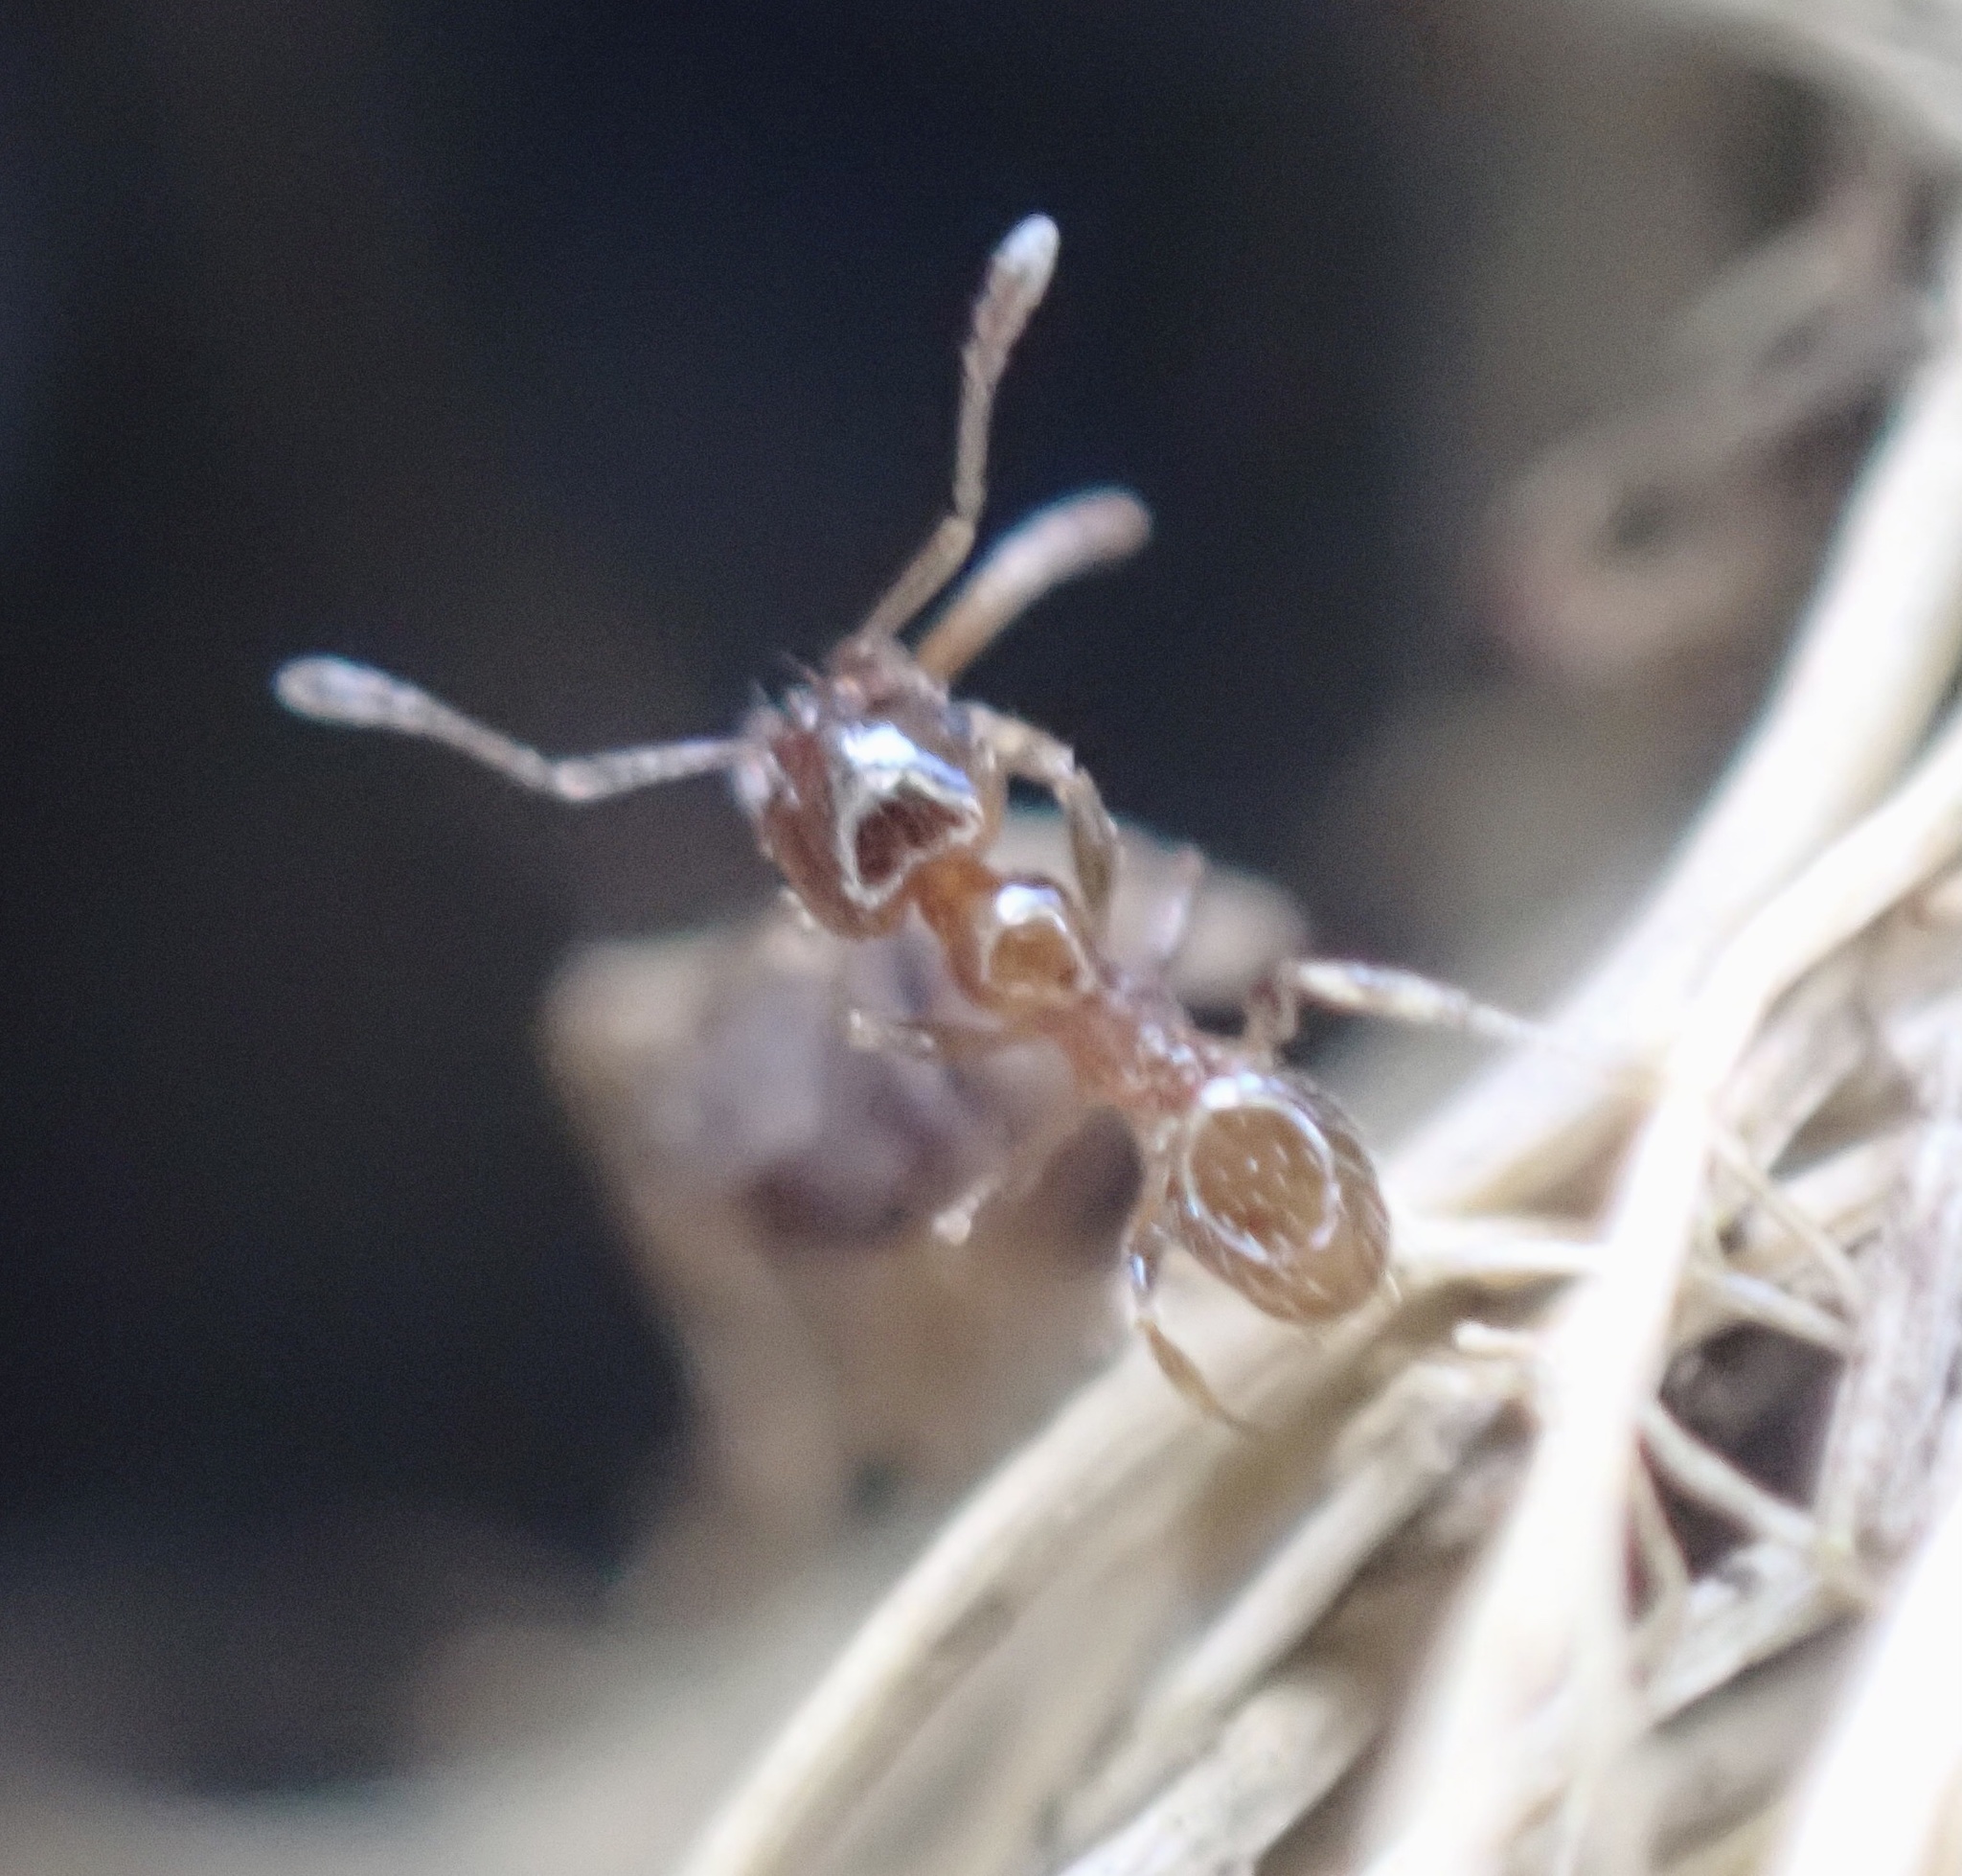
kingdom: Animalia
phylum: Arthropoda
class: Insecta
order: Hymenoptera
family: Formicidae
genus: Pheidole
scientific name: Pheidole bicarinata
